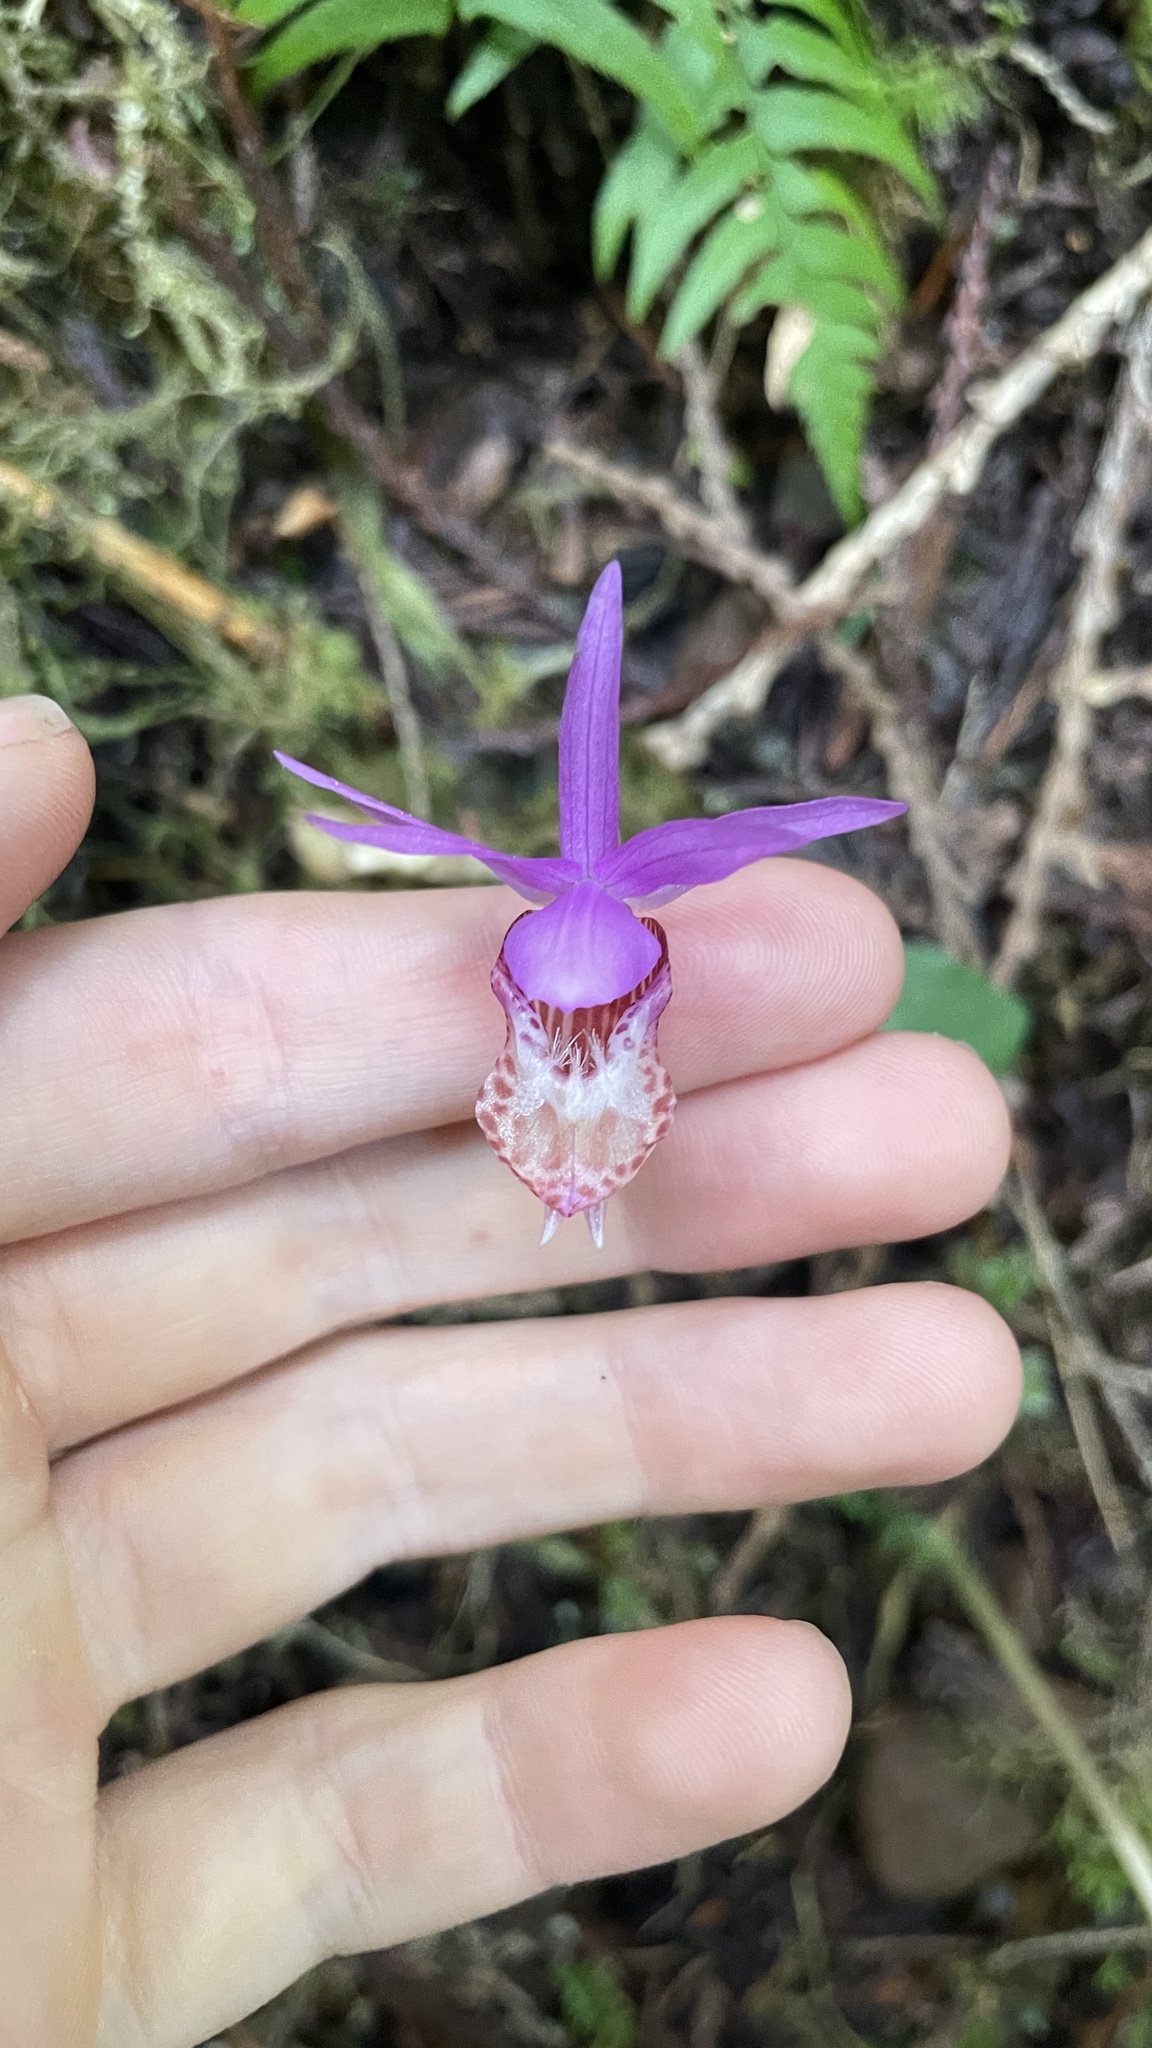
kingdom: Plantae
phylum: Tracheophyta
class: Liliopsida
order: Asparagales
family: Orchidaceae
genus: Calypso
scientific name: Calypso bulbosa
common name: Calypso
